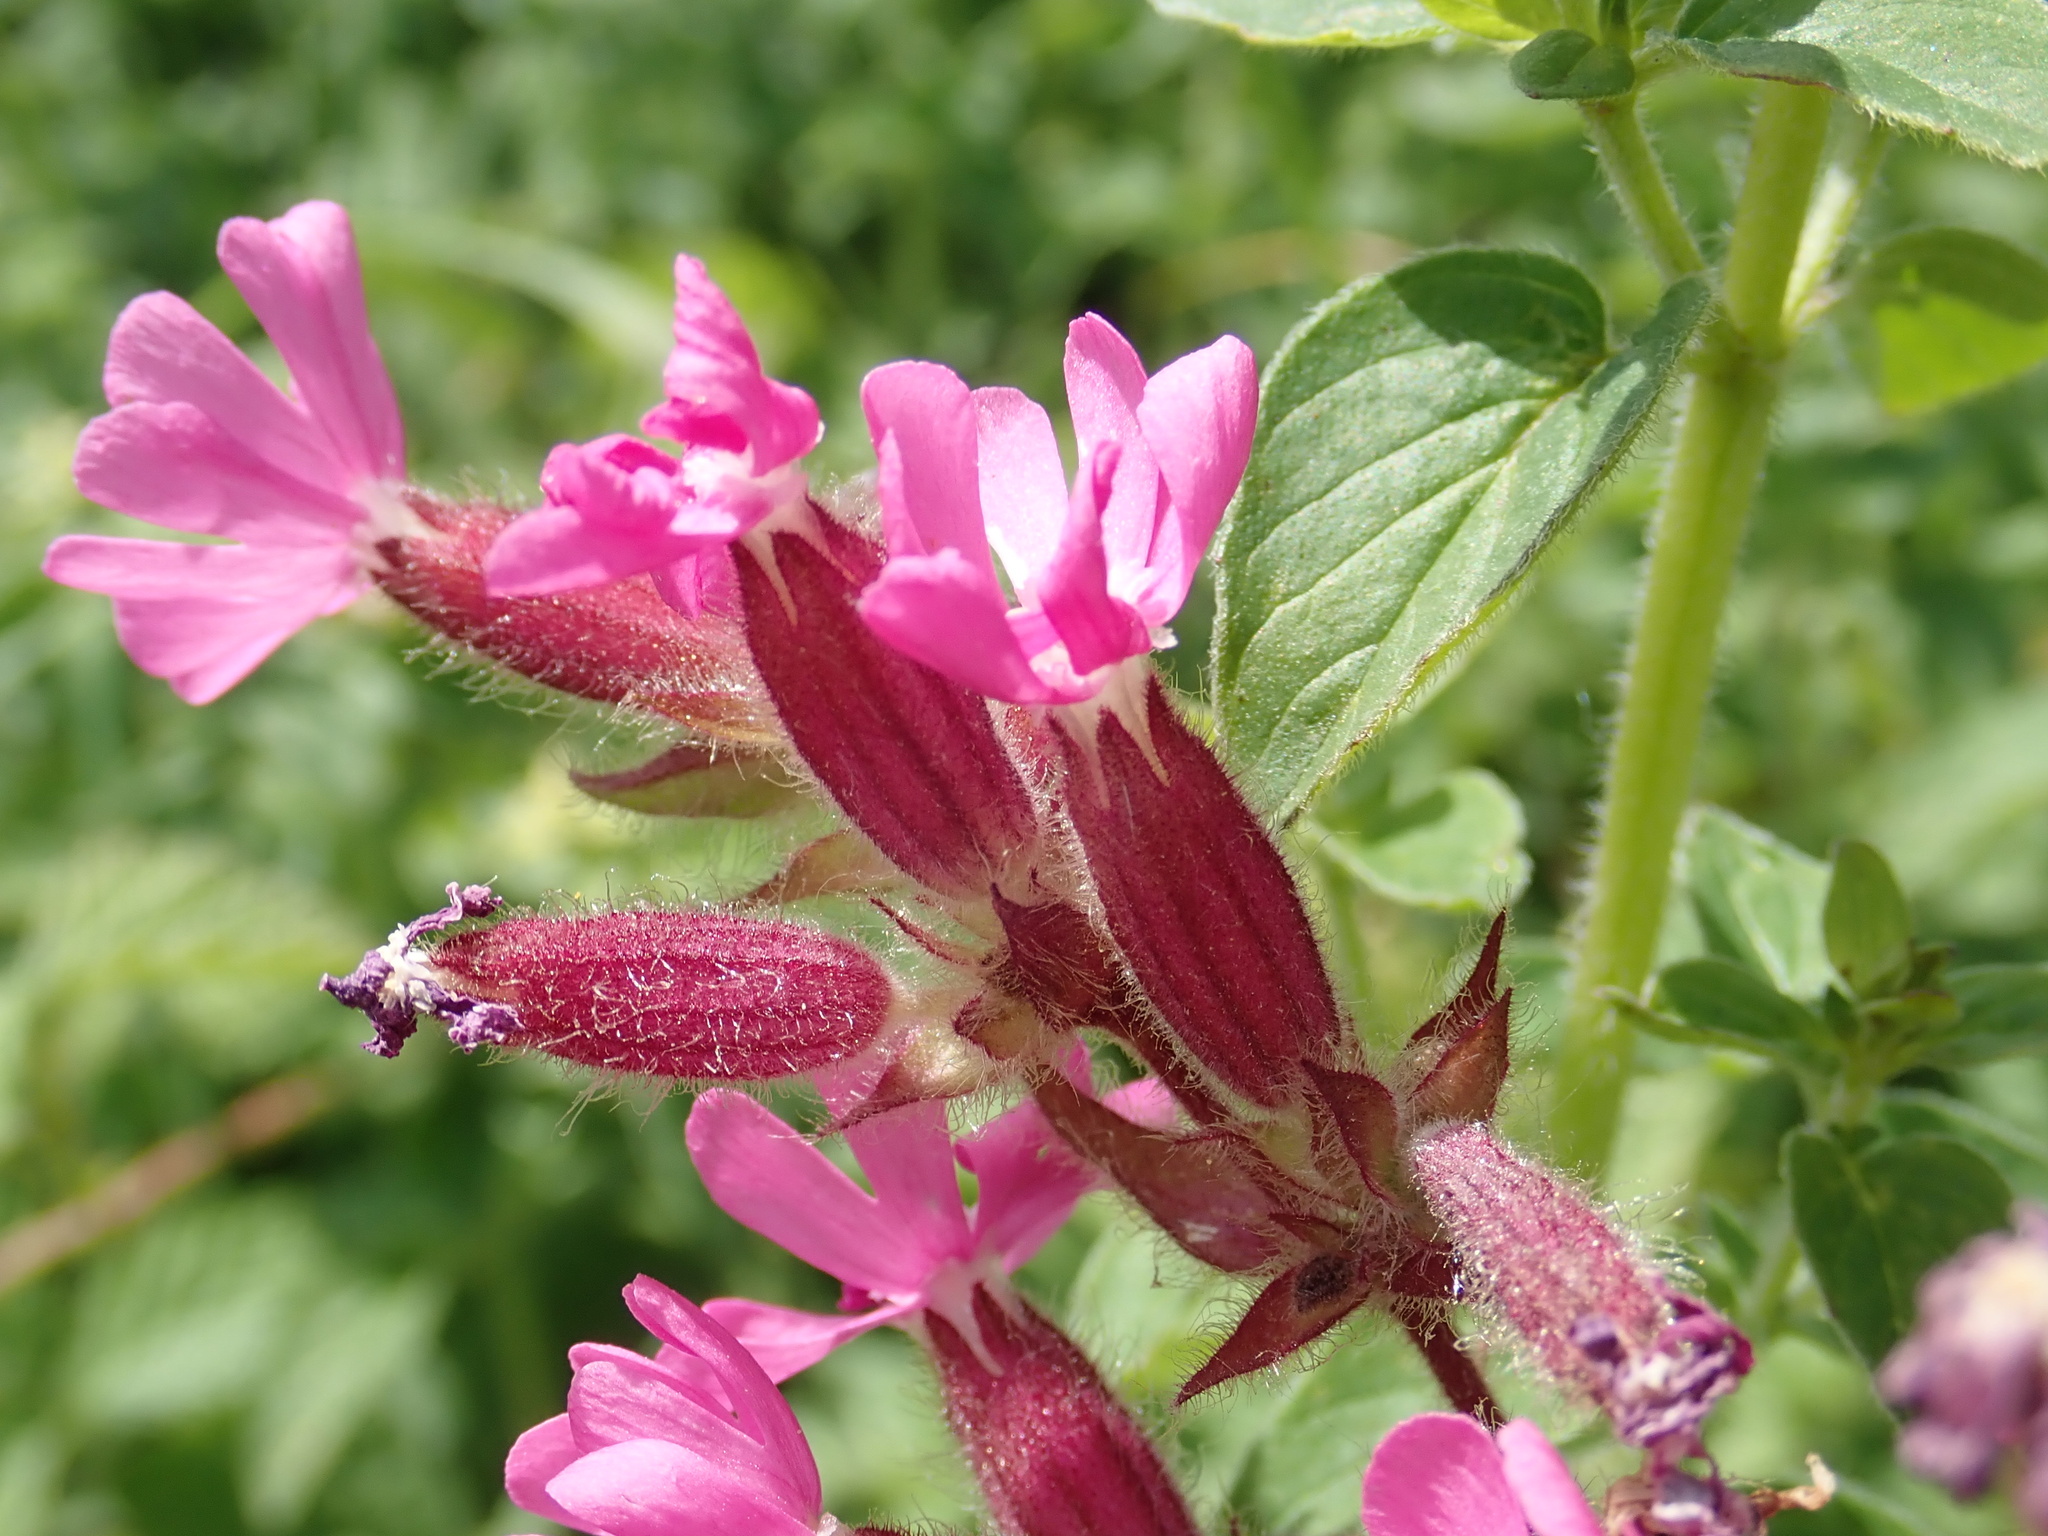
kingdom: Plantae
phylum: Tracheophyta
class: Magnoliopsida
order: Caryophyllales
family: Caryophyllaceae
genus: Silene
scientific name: Silene dioica
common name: Red campion
